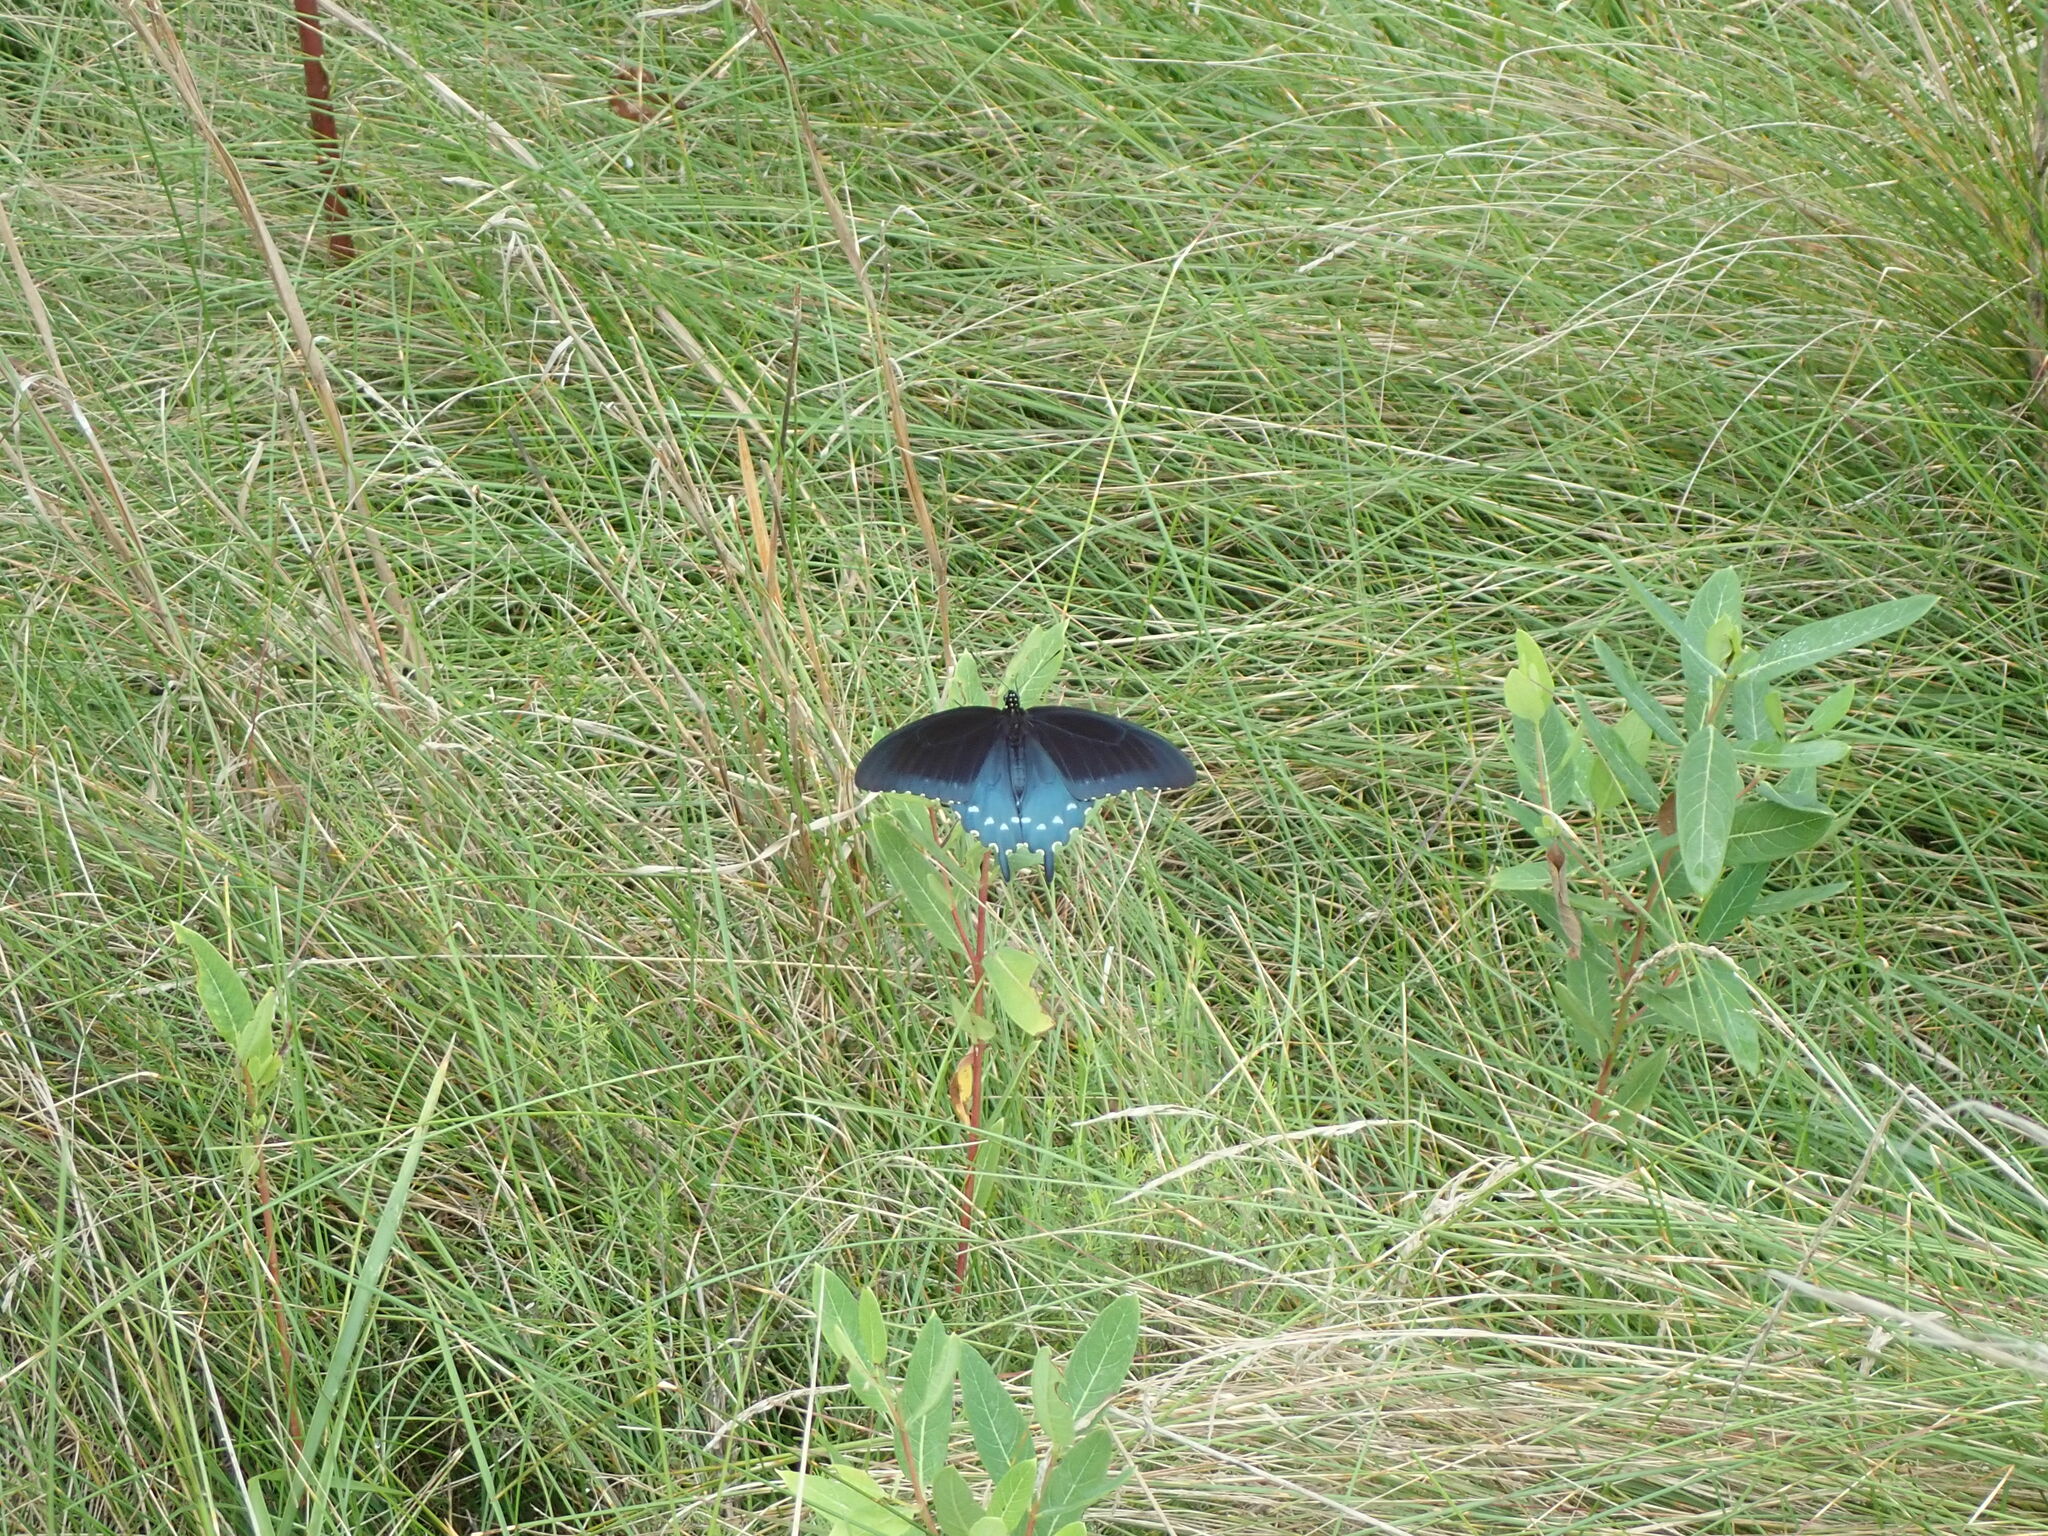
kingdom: Animalia
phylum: Arthropoda
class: Insecta
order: Lepidoptera
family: Papilionidae
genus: Battus
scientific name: Battus philenor
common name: Pipevine swallowtail
